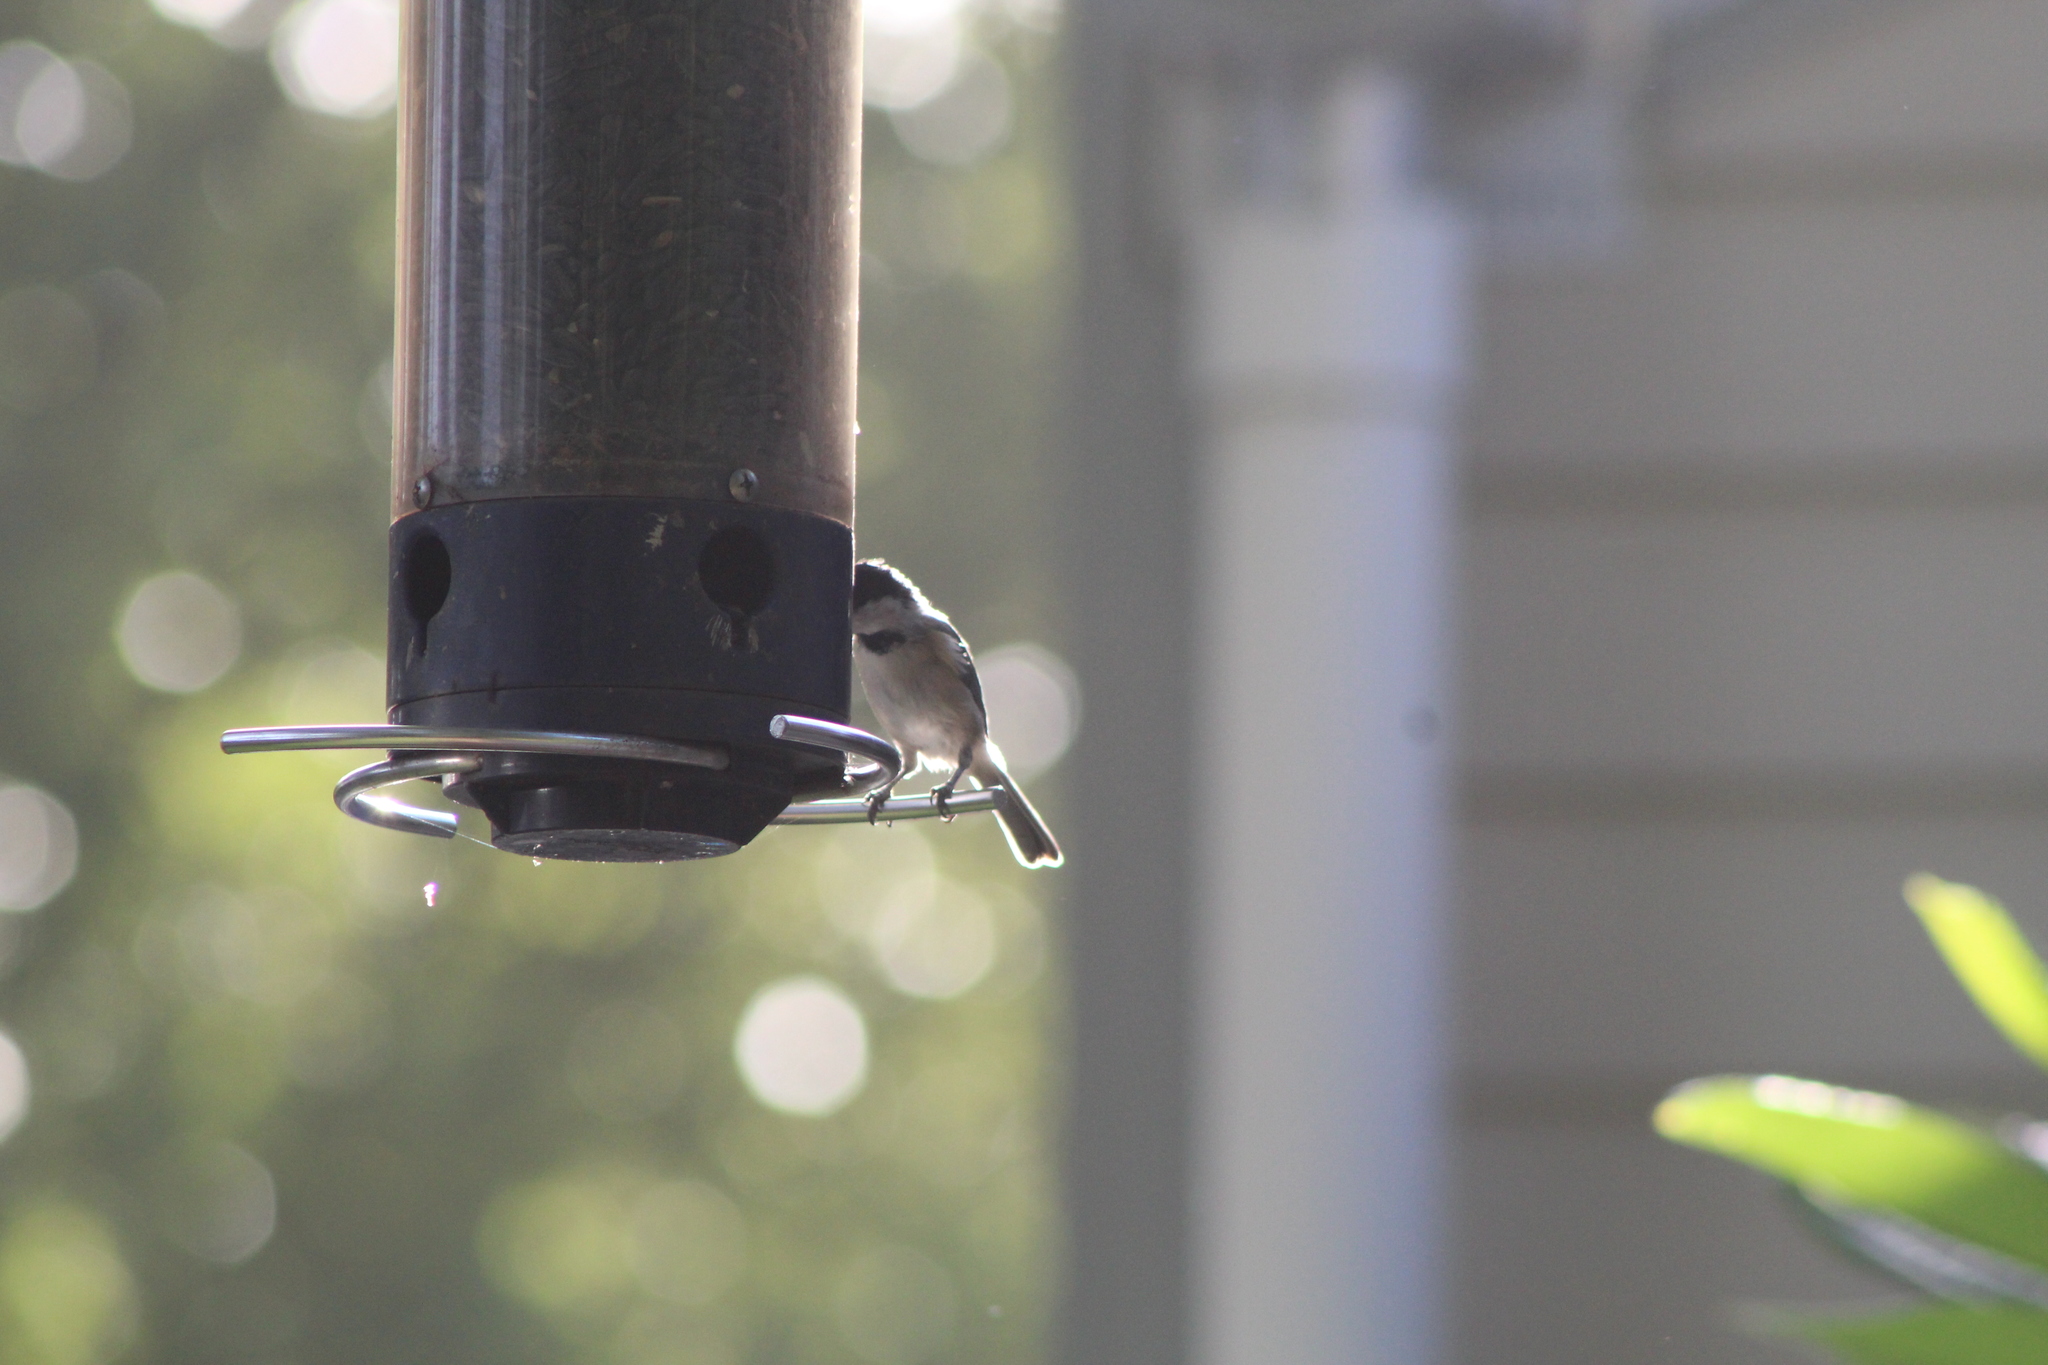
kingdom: Animalia
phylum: Chordata
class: Aves
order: Passeriformes
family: Paridae
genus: Poecile
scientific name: Poecile carolinensis
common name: Carolina chickadee
